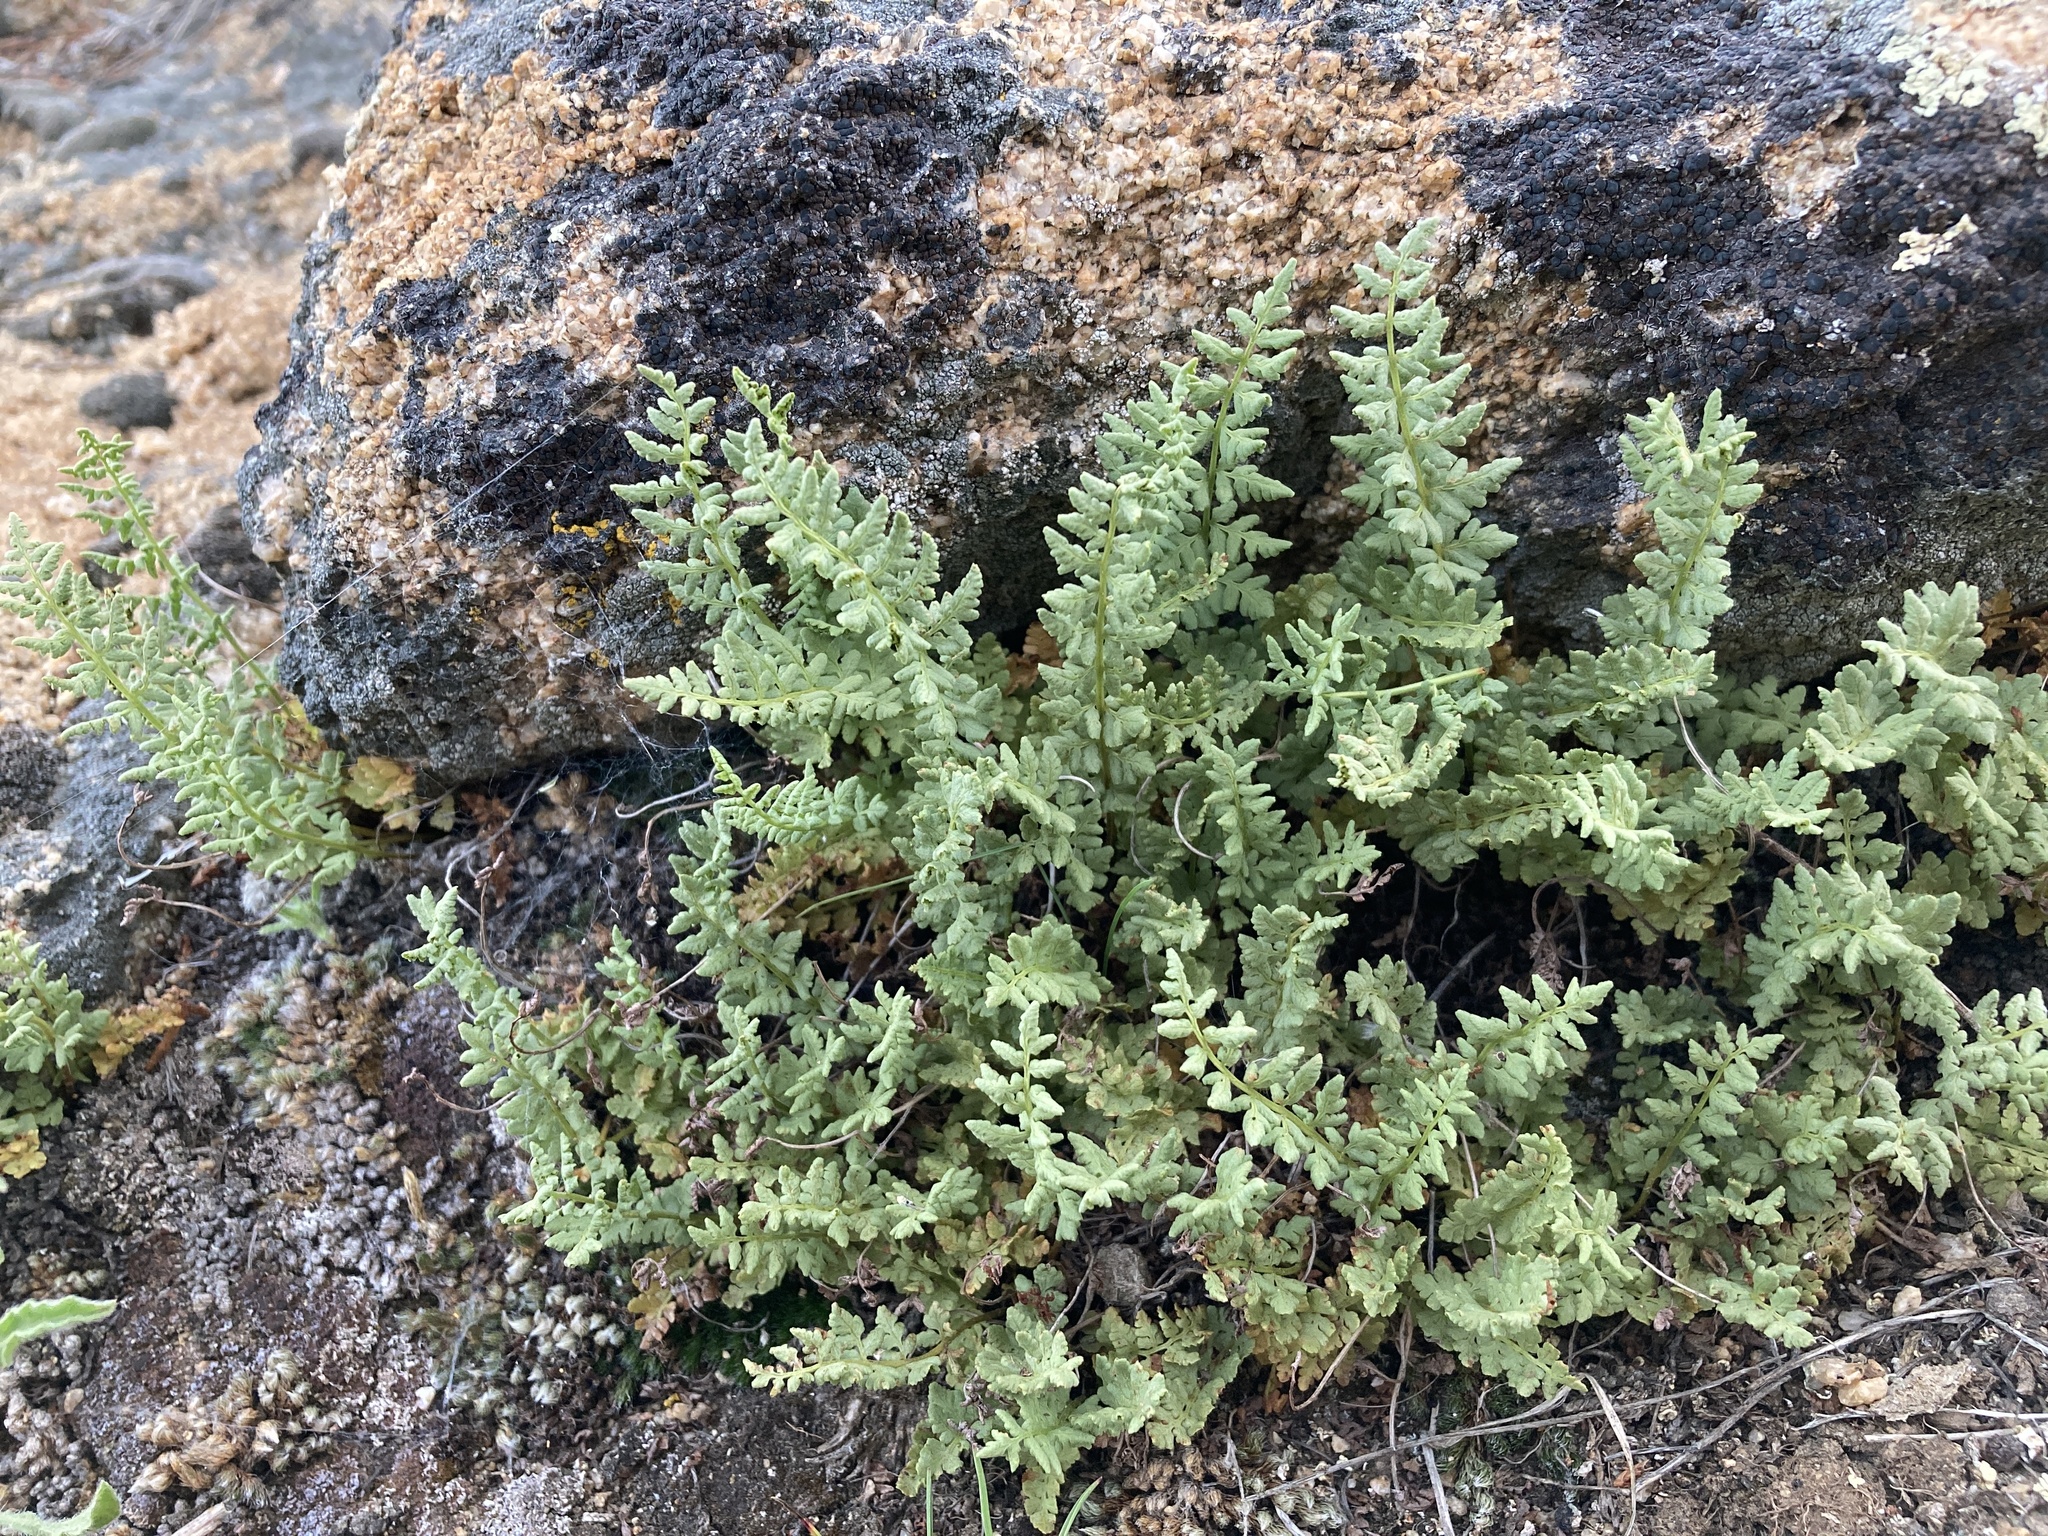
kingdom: Plantae
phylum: Tracheophyta
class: Polypodiopsida
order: Polypodiales
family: Woodsiaceae
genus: Physematium
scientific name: Physematium oreganum
